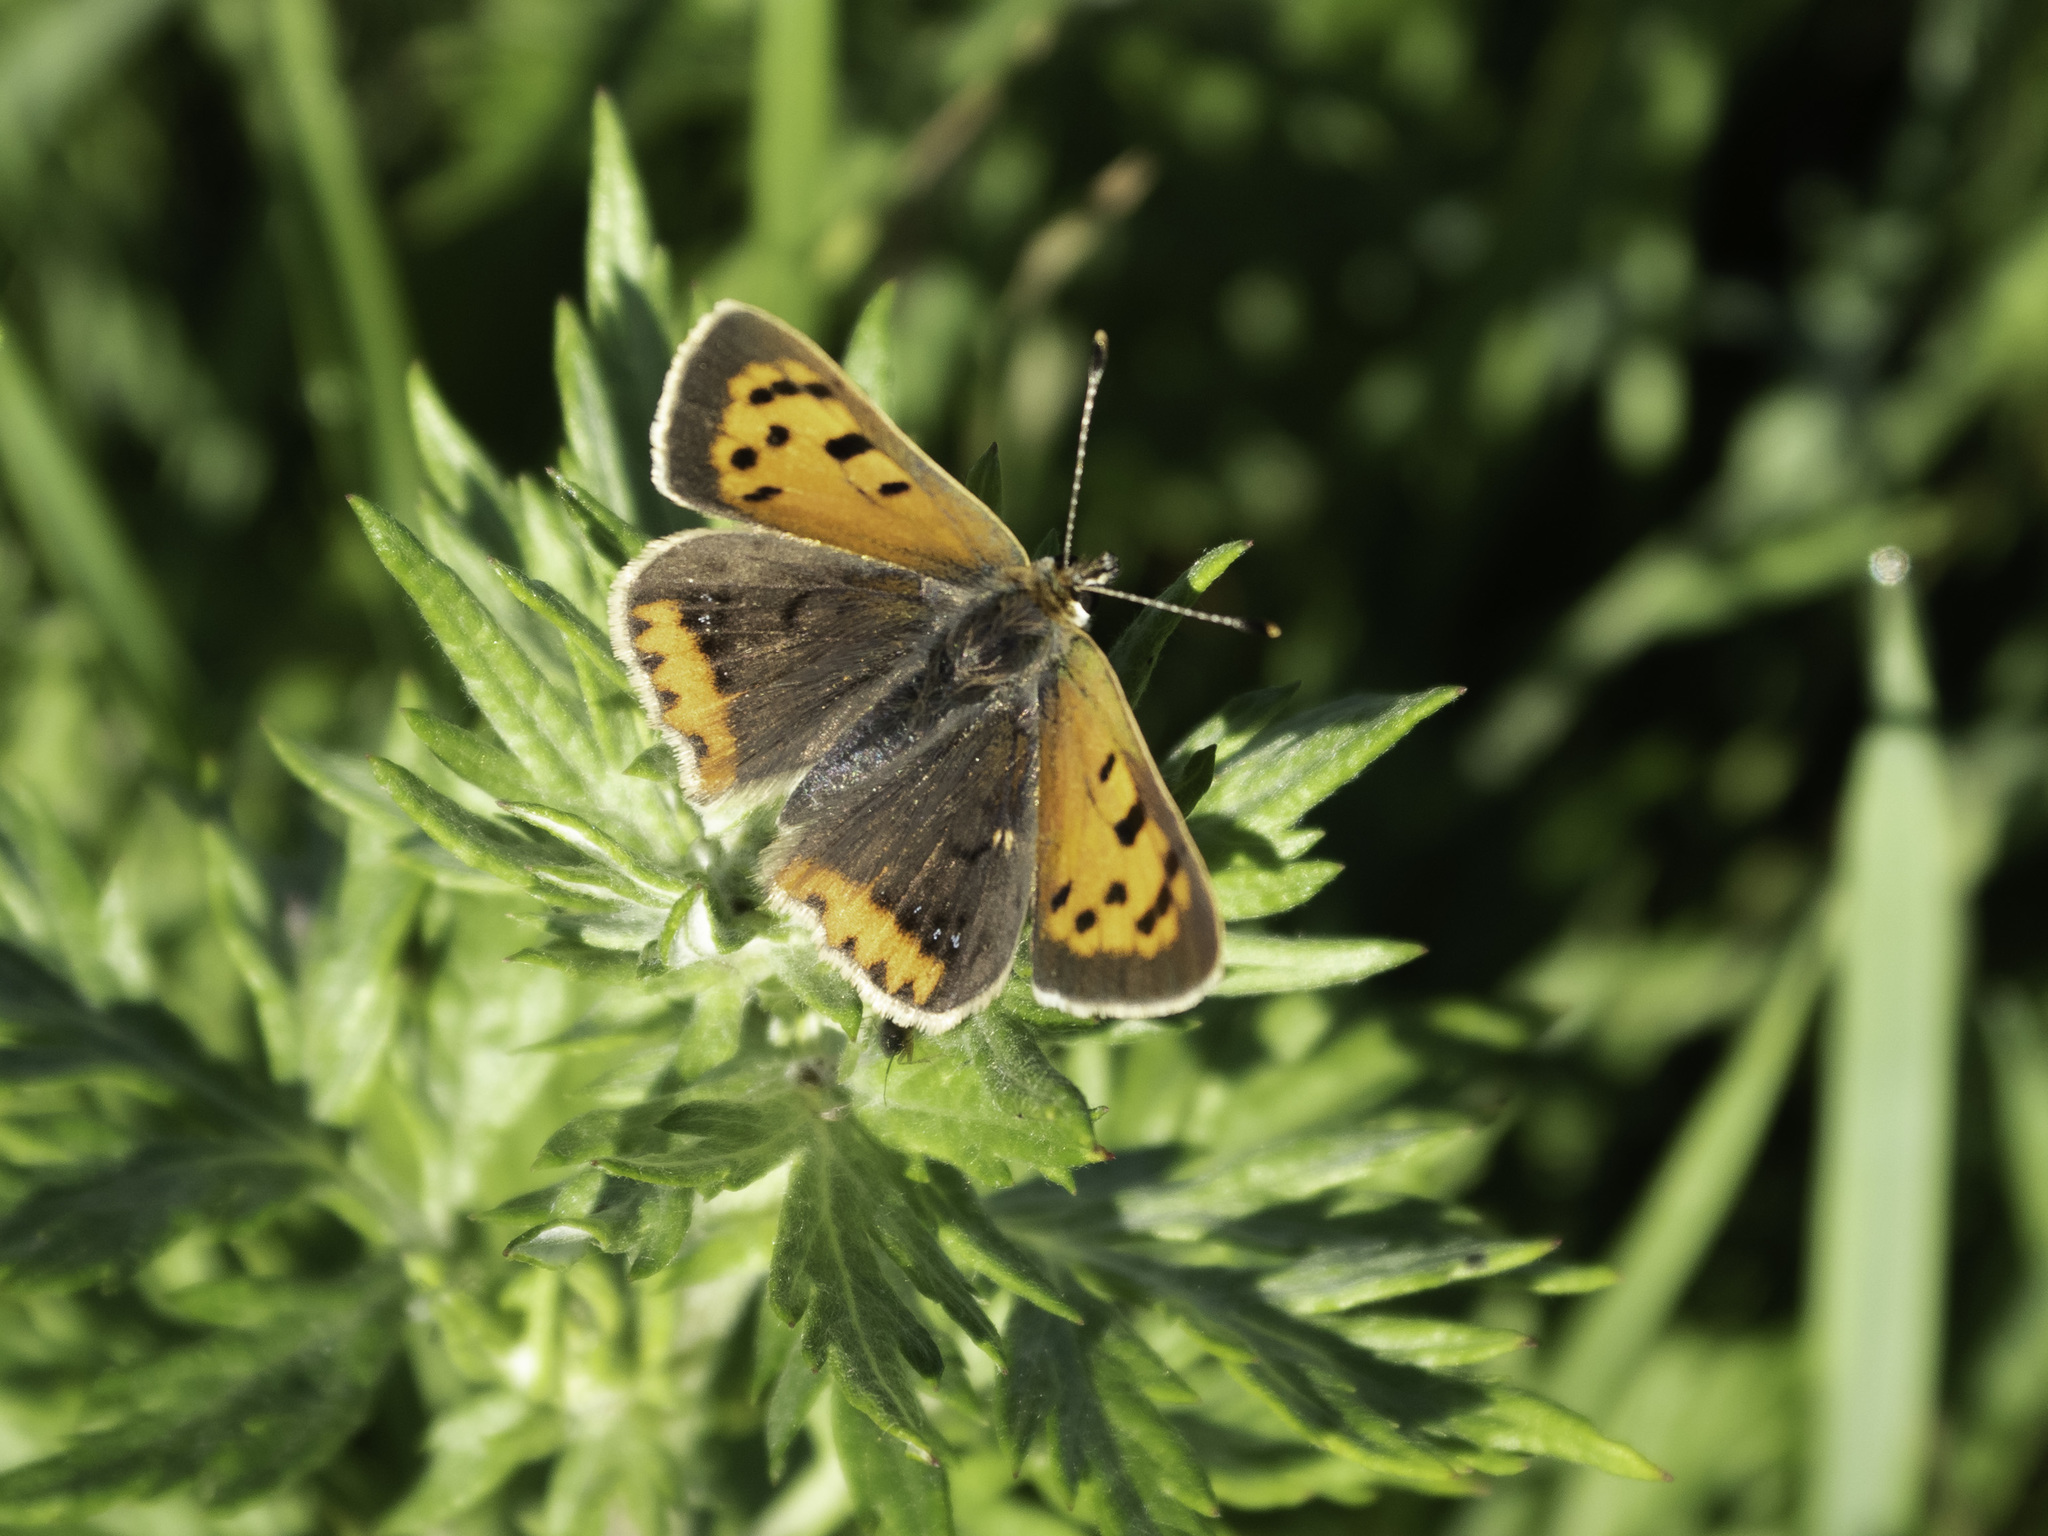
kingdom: Animalia
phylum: Arthropoda
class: Insecta
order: Lepidoptera
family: Lycaenidae
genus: Lycaena
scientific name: Lycaena phlaeas
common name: Small copper
